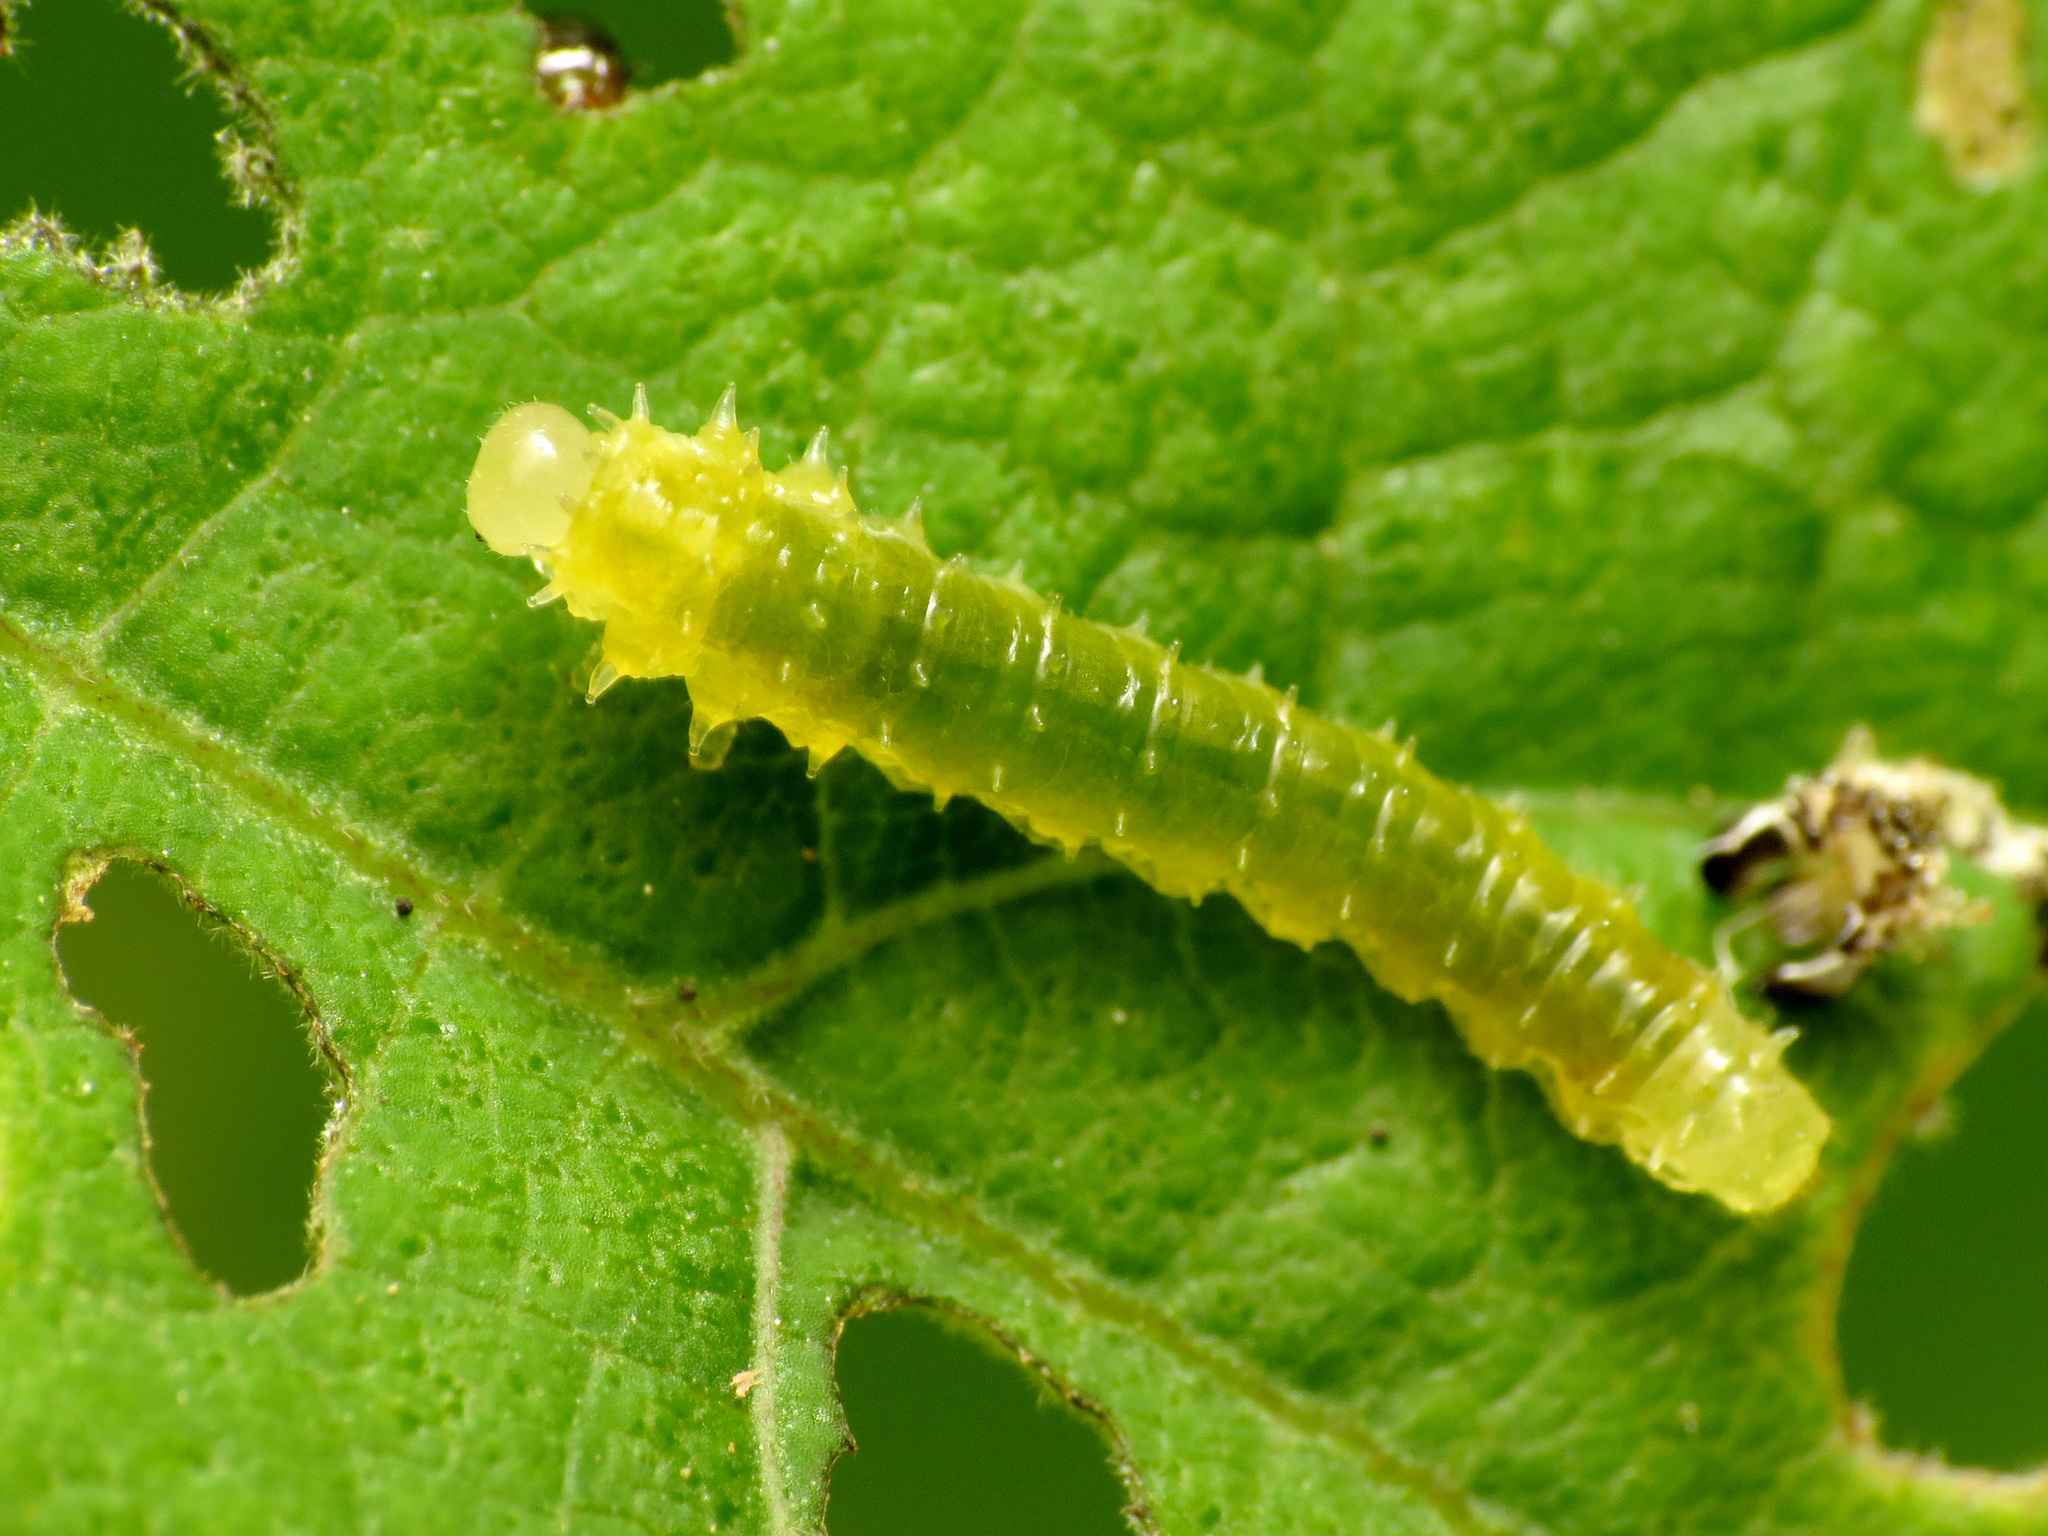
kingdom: Animalia
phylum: Arthropoda
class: Insecta
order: Hymenoptera
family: Argidae
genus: Atomacera
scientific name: Atomacera
